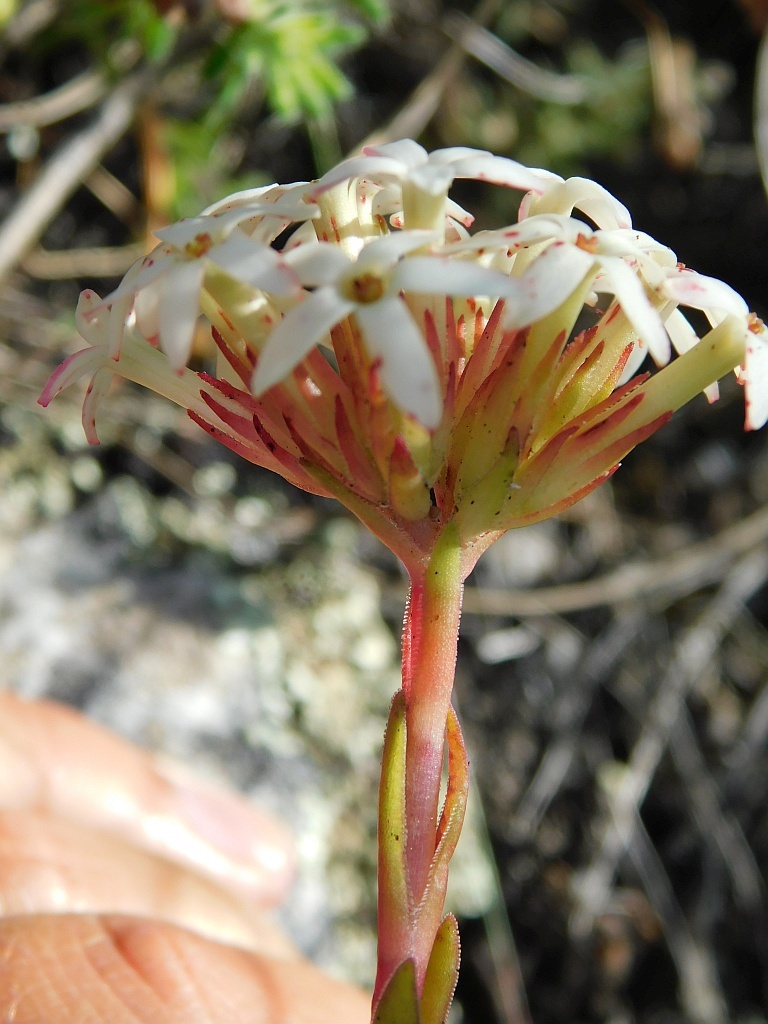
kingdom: Plantae
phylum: Tracheophyta
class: Magnoliopsida
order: Saxifragales
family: Crassulaceae
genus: Crassula
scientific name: Crassula fascicularis
